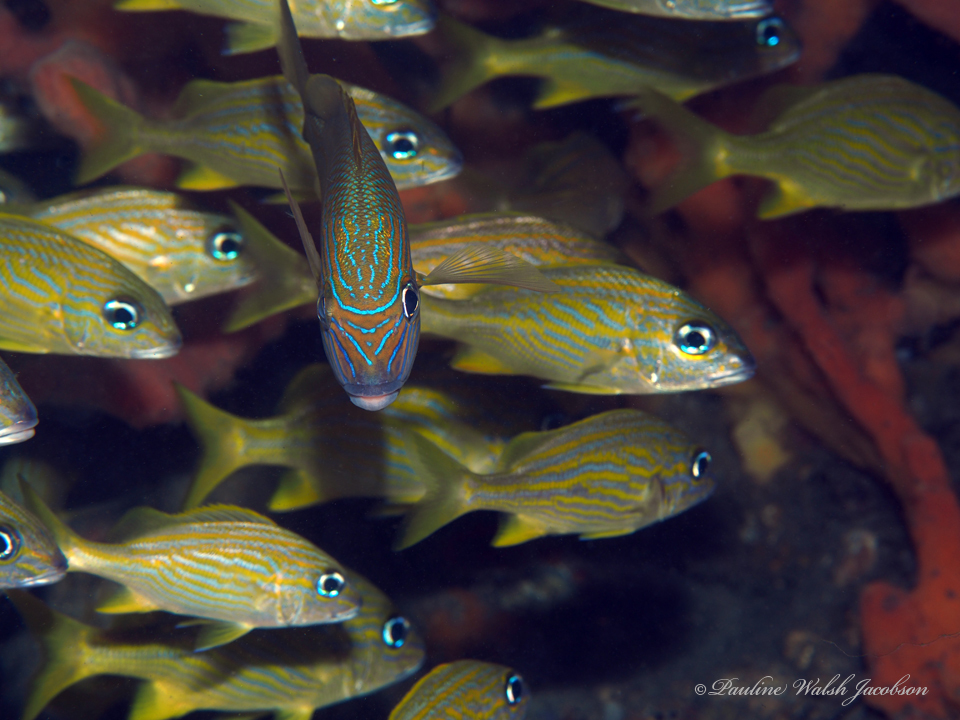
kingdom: Animalia
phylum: Chordata
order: Perciformes
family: Haemulidae
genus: Haemulon
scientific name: Haemulon flavolineatum
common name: French grunt
